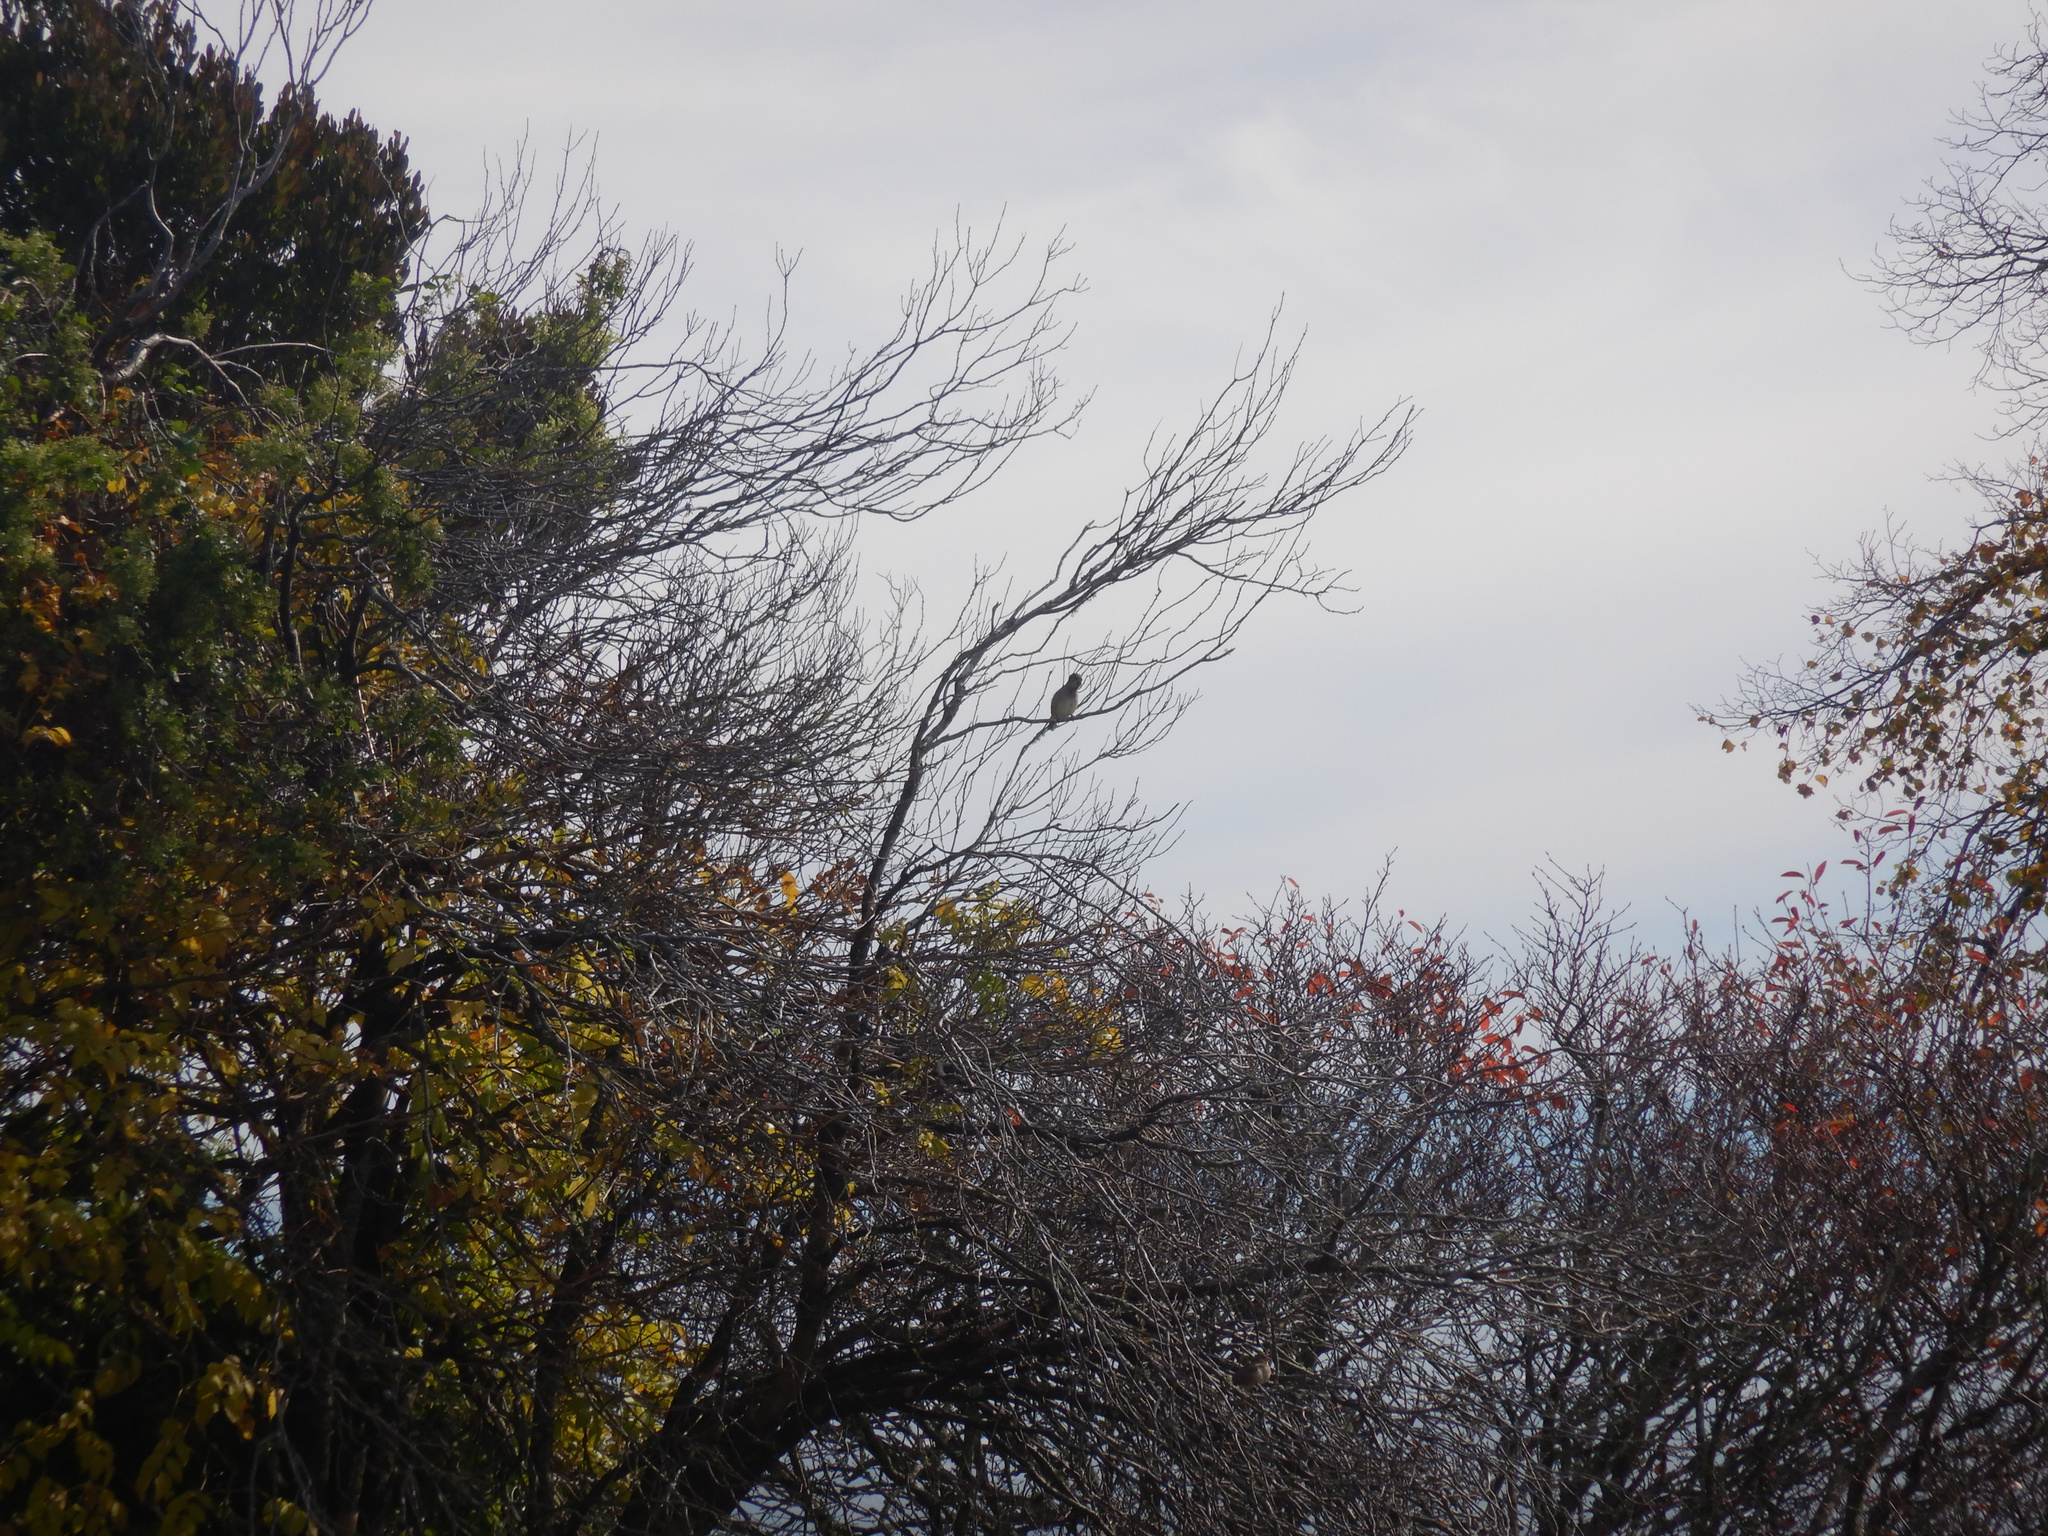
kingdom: Animalia
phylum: Chordata
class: Aves
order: Passeriformes
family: Passeridae
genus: Passer
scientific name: Passer domesticus
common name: House sparrow
